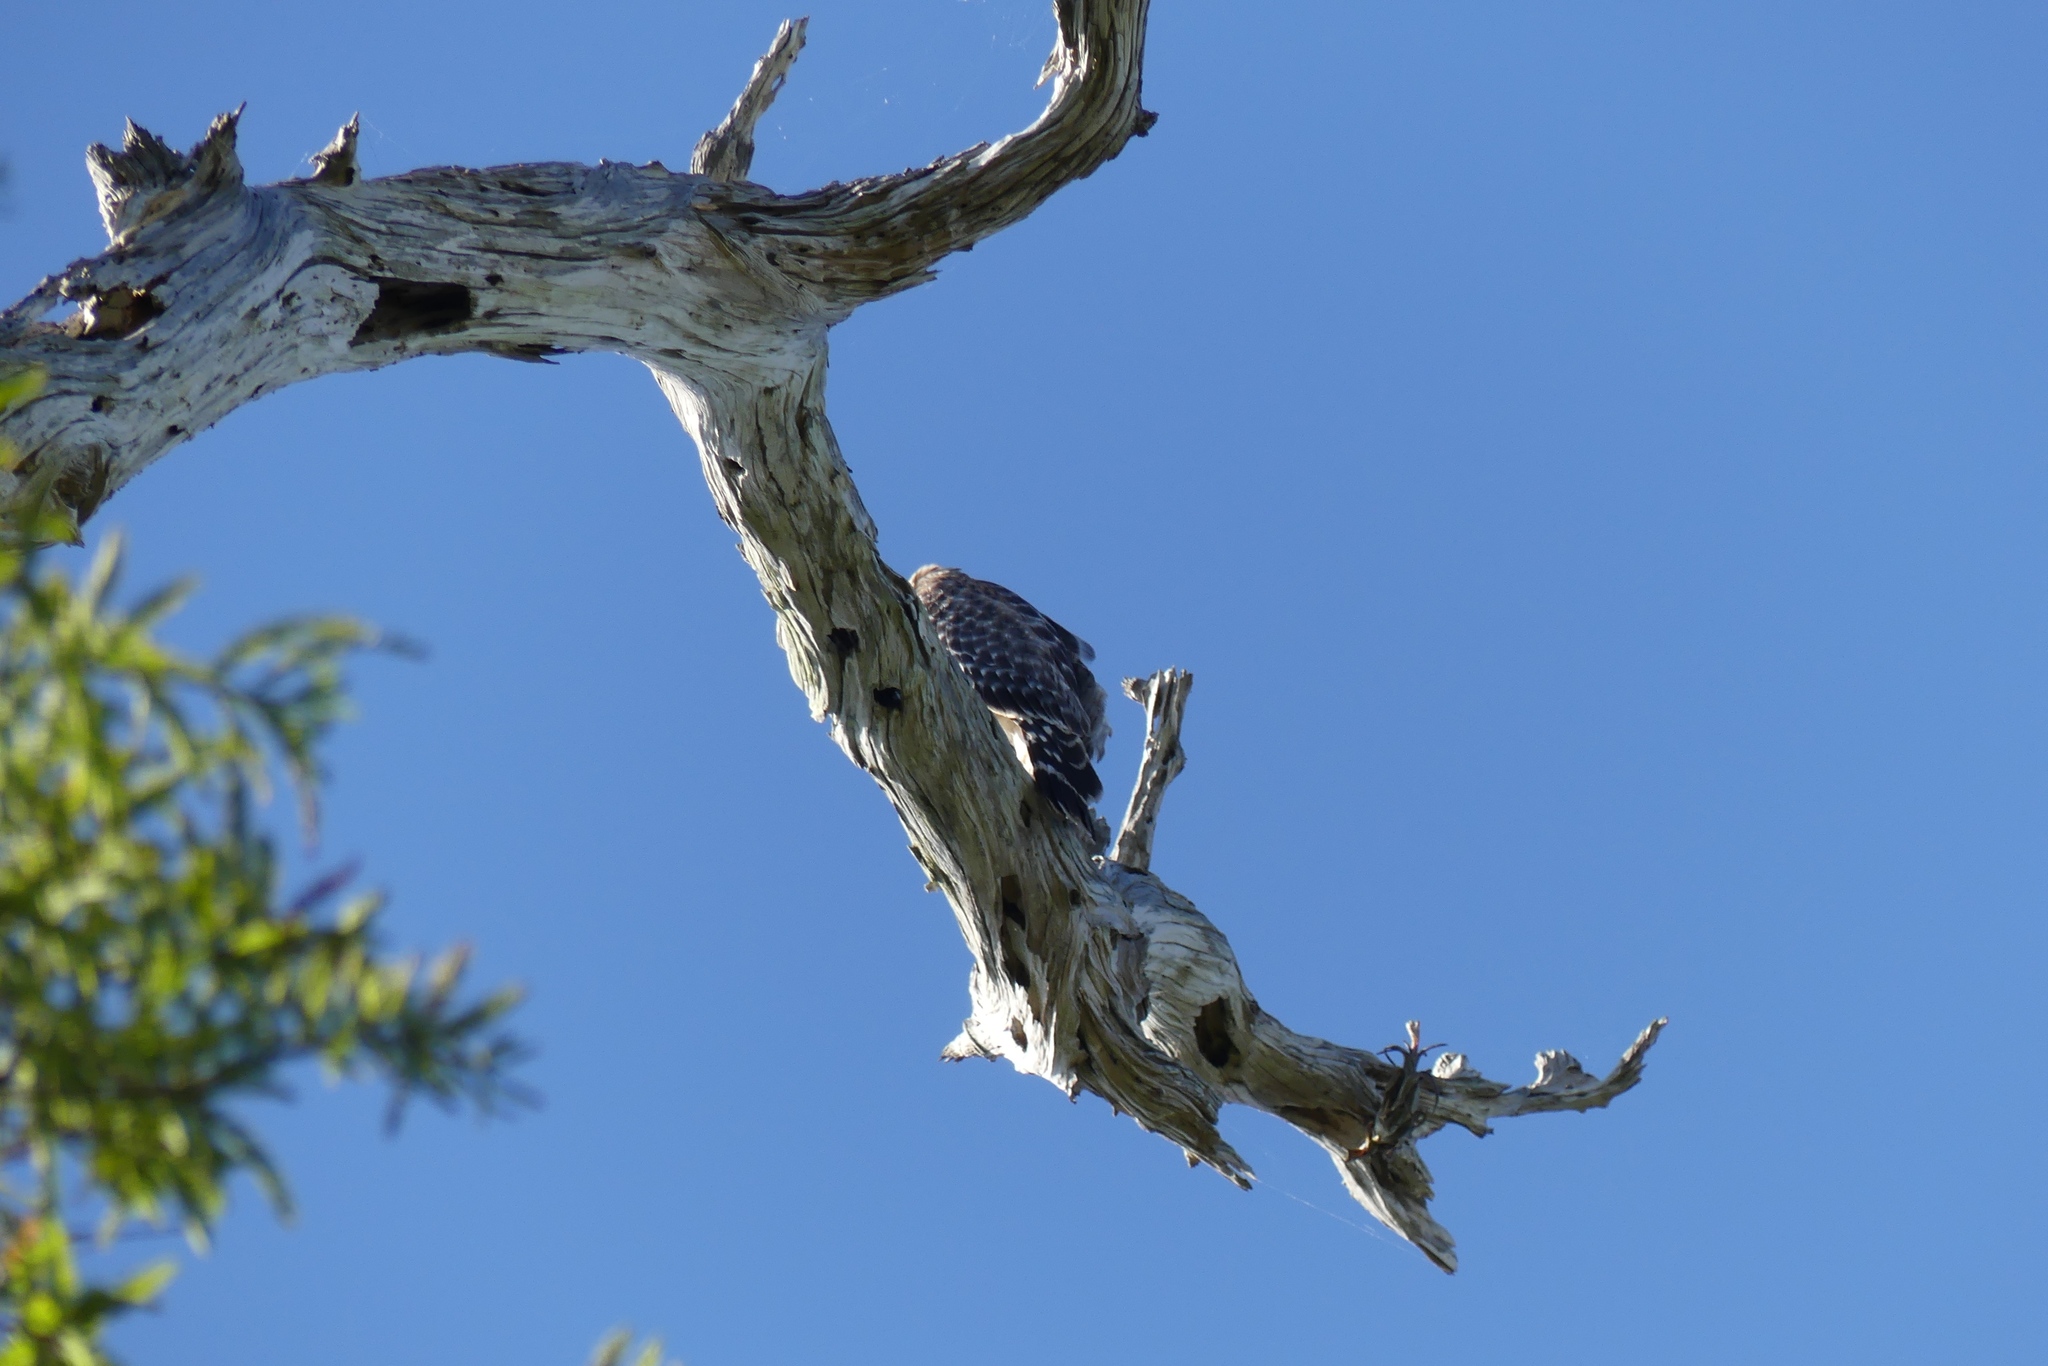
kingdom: Animalia
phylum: Chordata
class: Aves
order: Accipitriformes
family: Accipitridae
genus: Buteo
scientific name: Buteo lineatus
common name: Red-shouldered hawk
